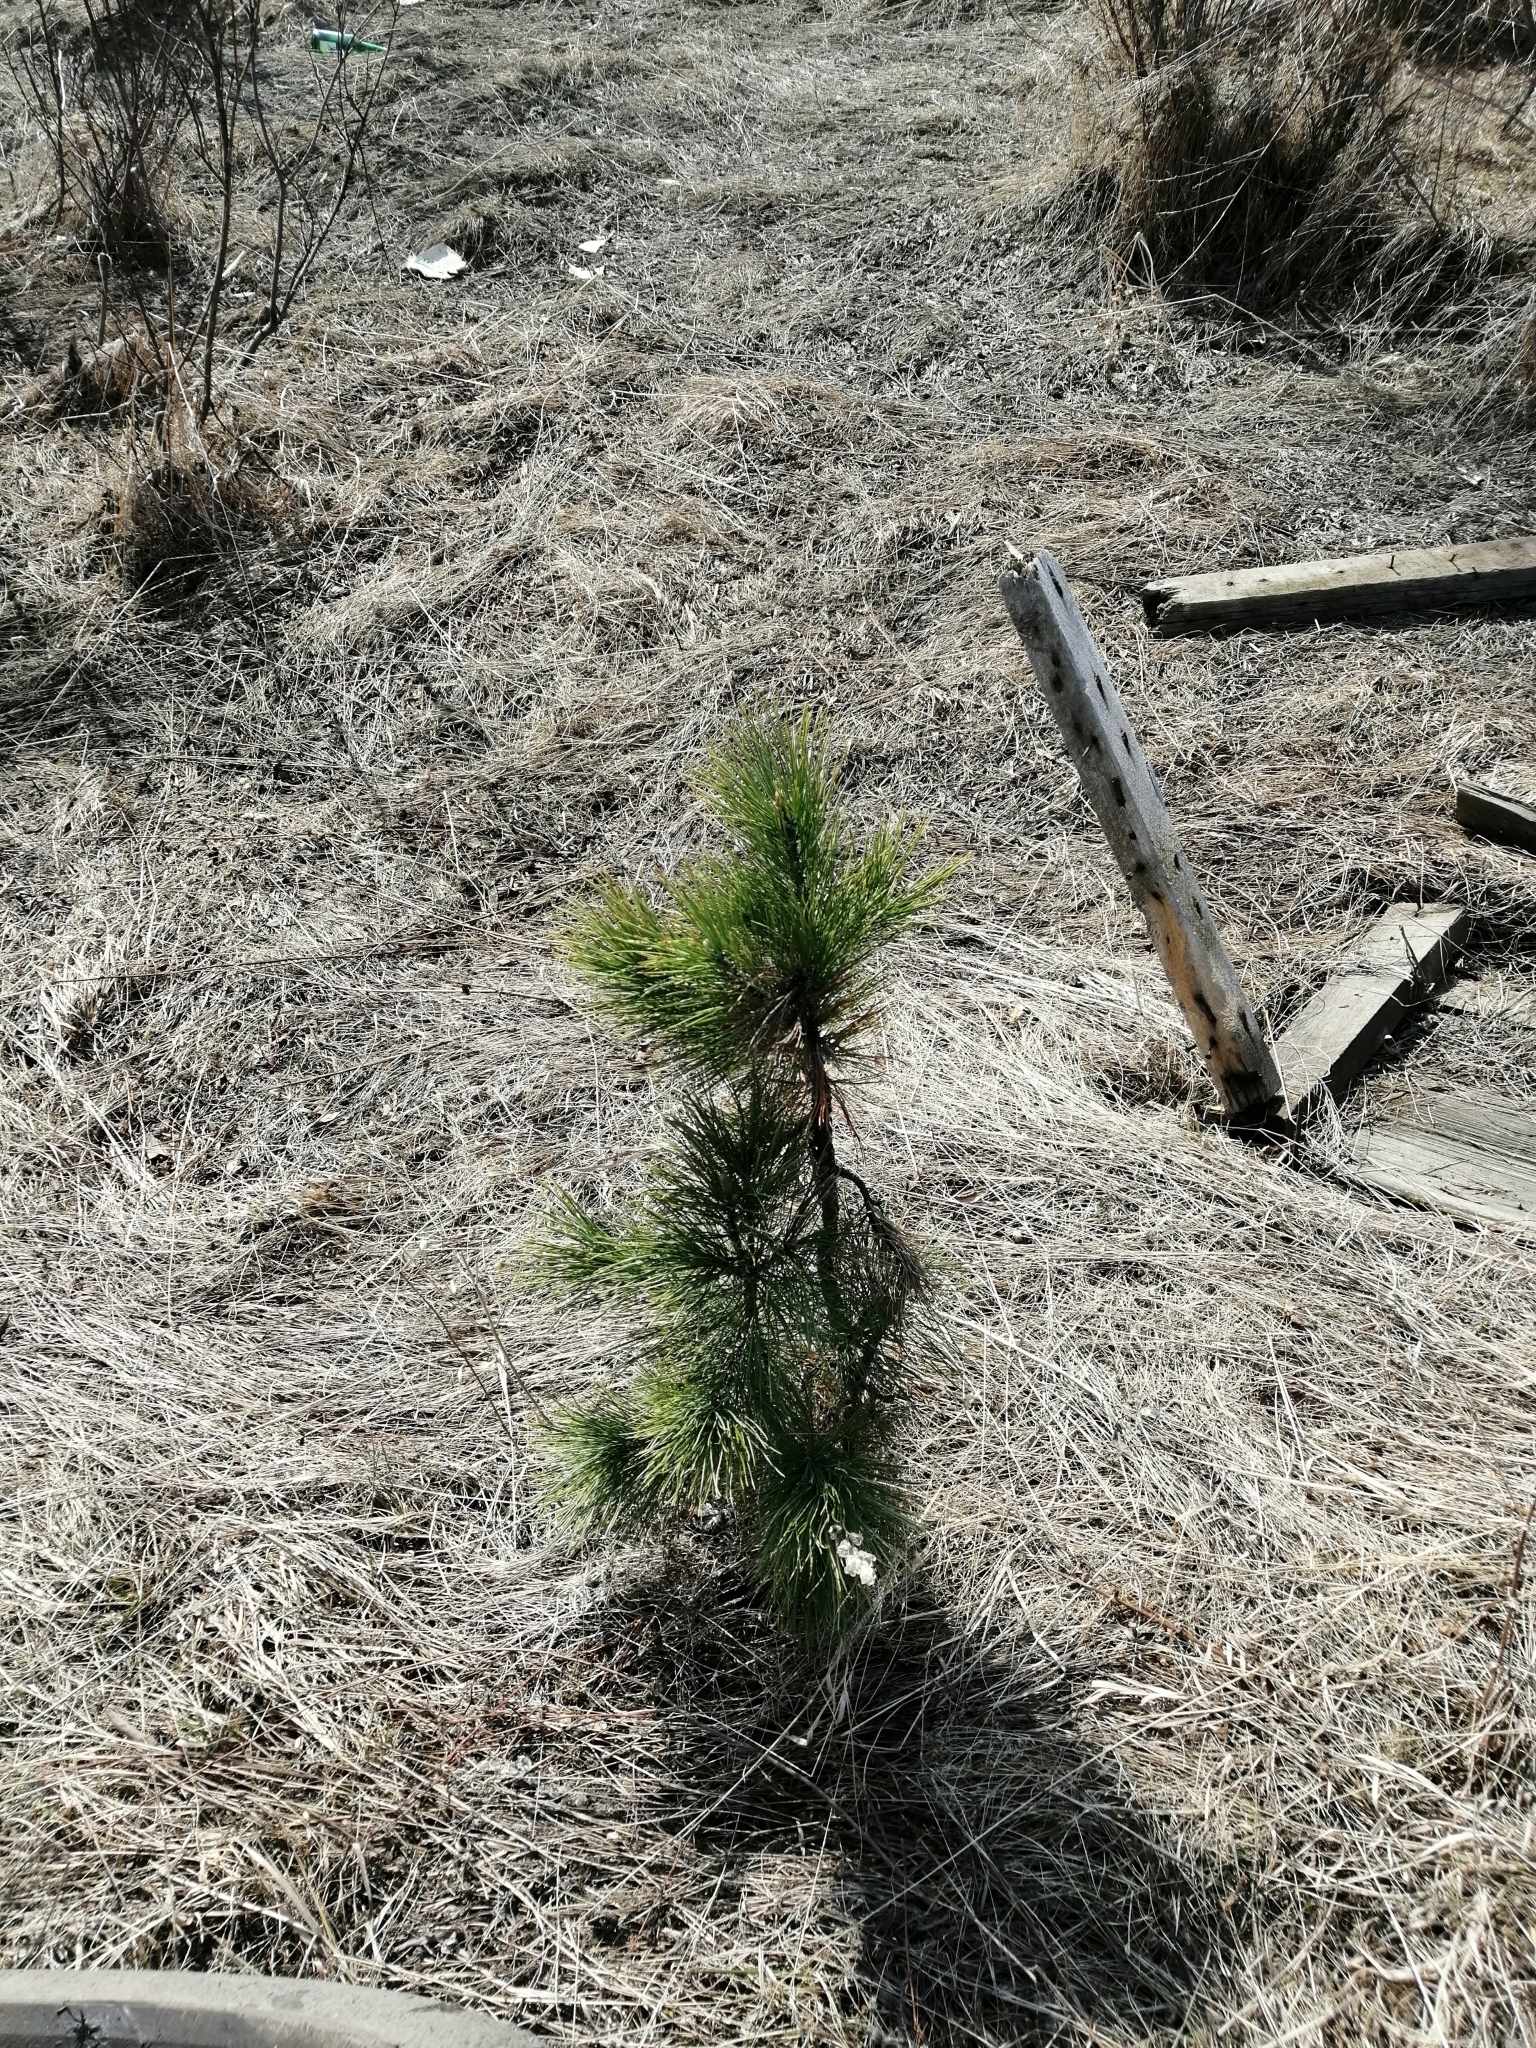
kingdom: Plantae
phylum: Tracheophyta
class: Pinopsida
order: Pinales
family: Pinaceae
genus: Pinus
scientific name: Pinus sibirica
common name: Siberian pine
